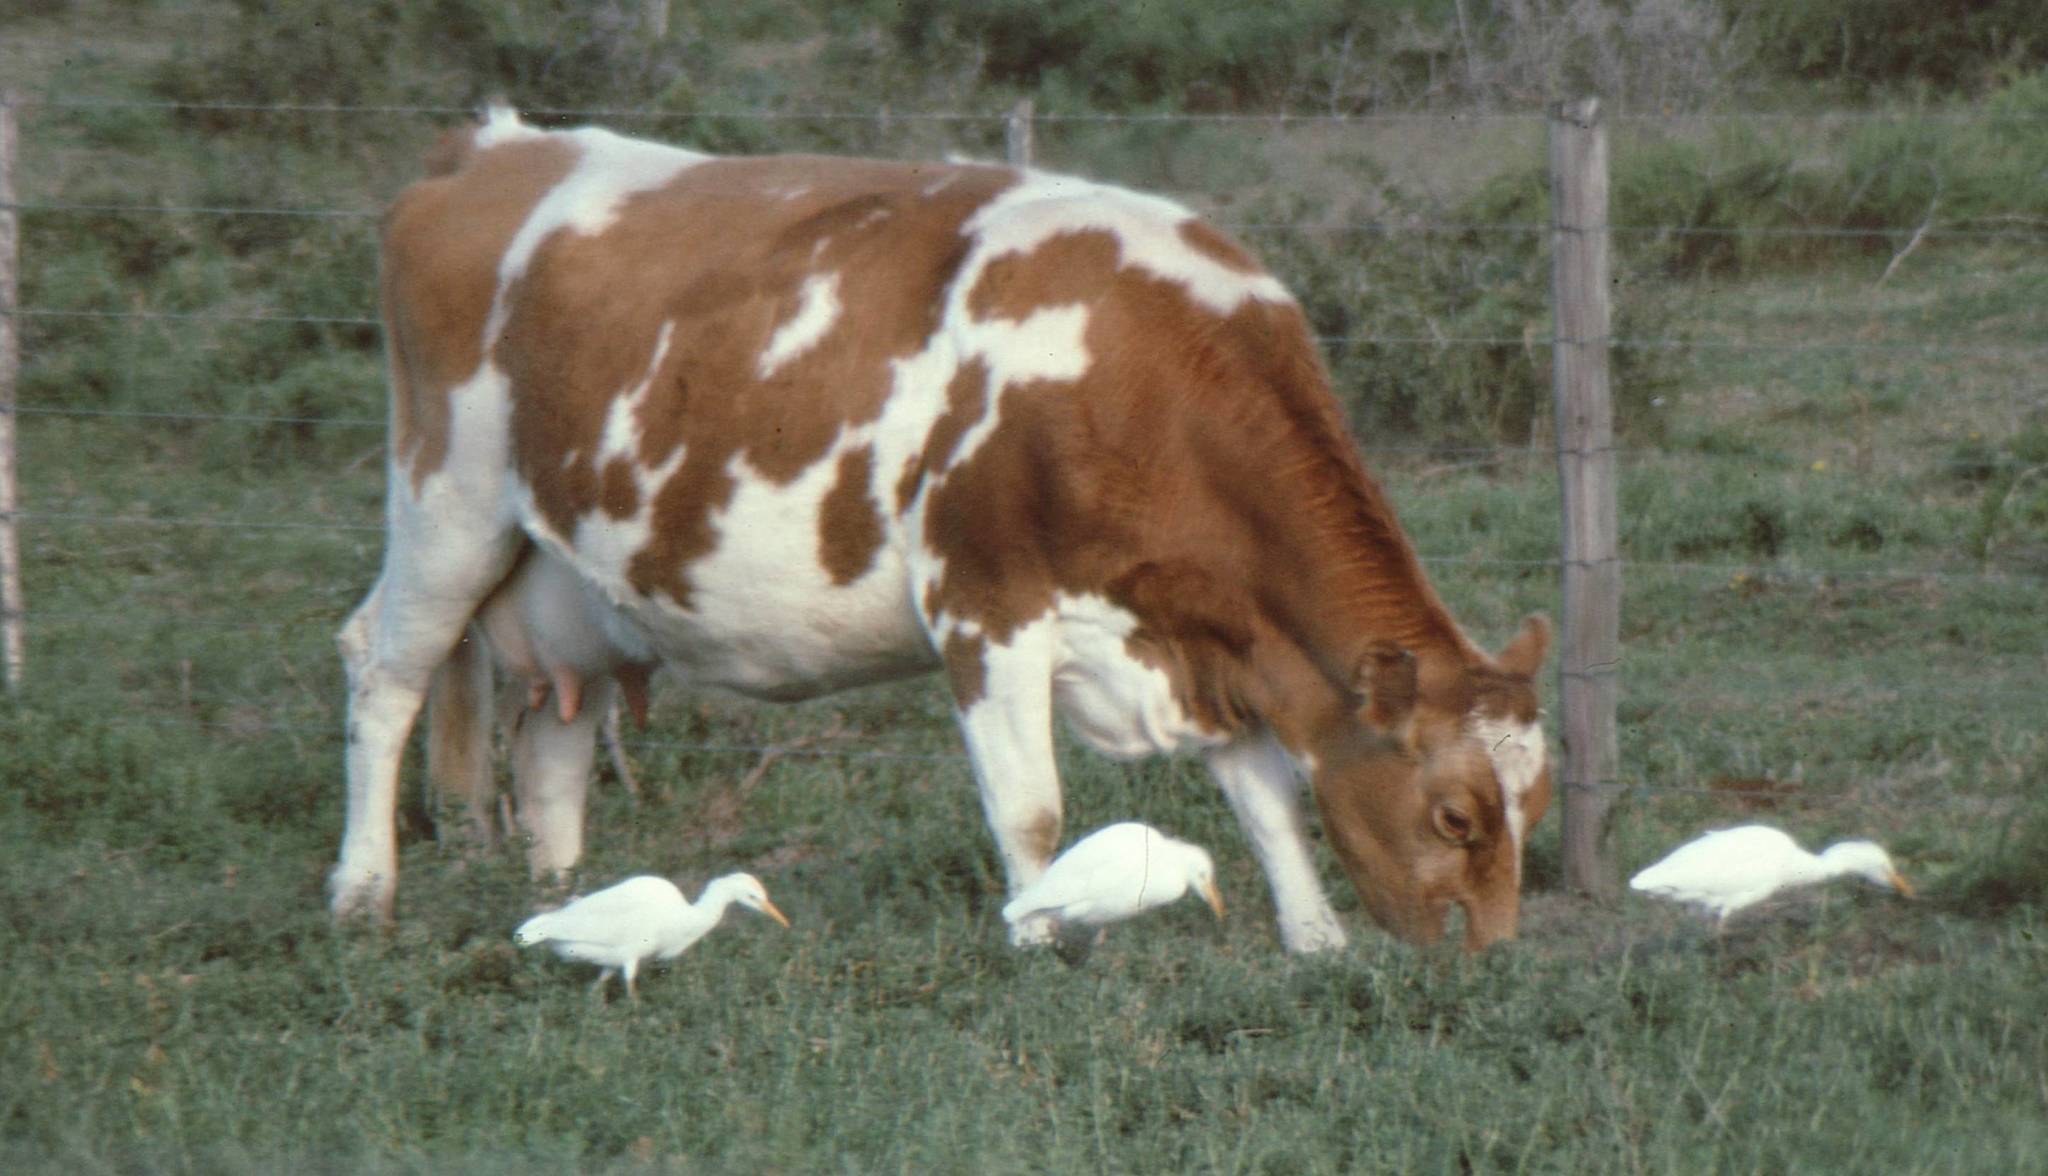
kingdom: Animalia
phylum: Chordata
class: Aves
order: Pelecaniformes
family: Ardeidae
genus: Bubulcus
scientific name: Bubulcus ibis
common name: Cattle egret
